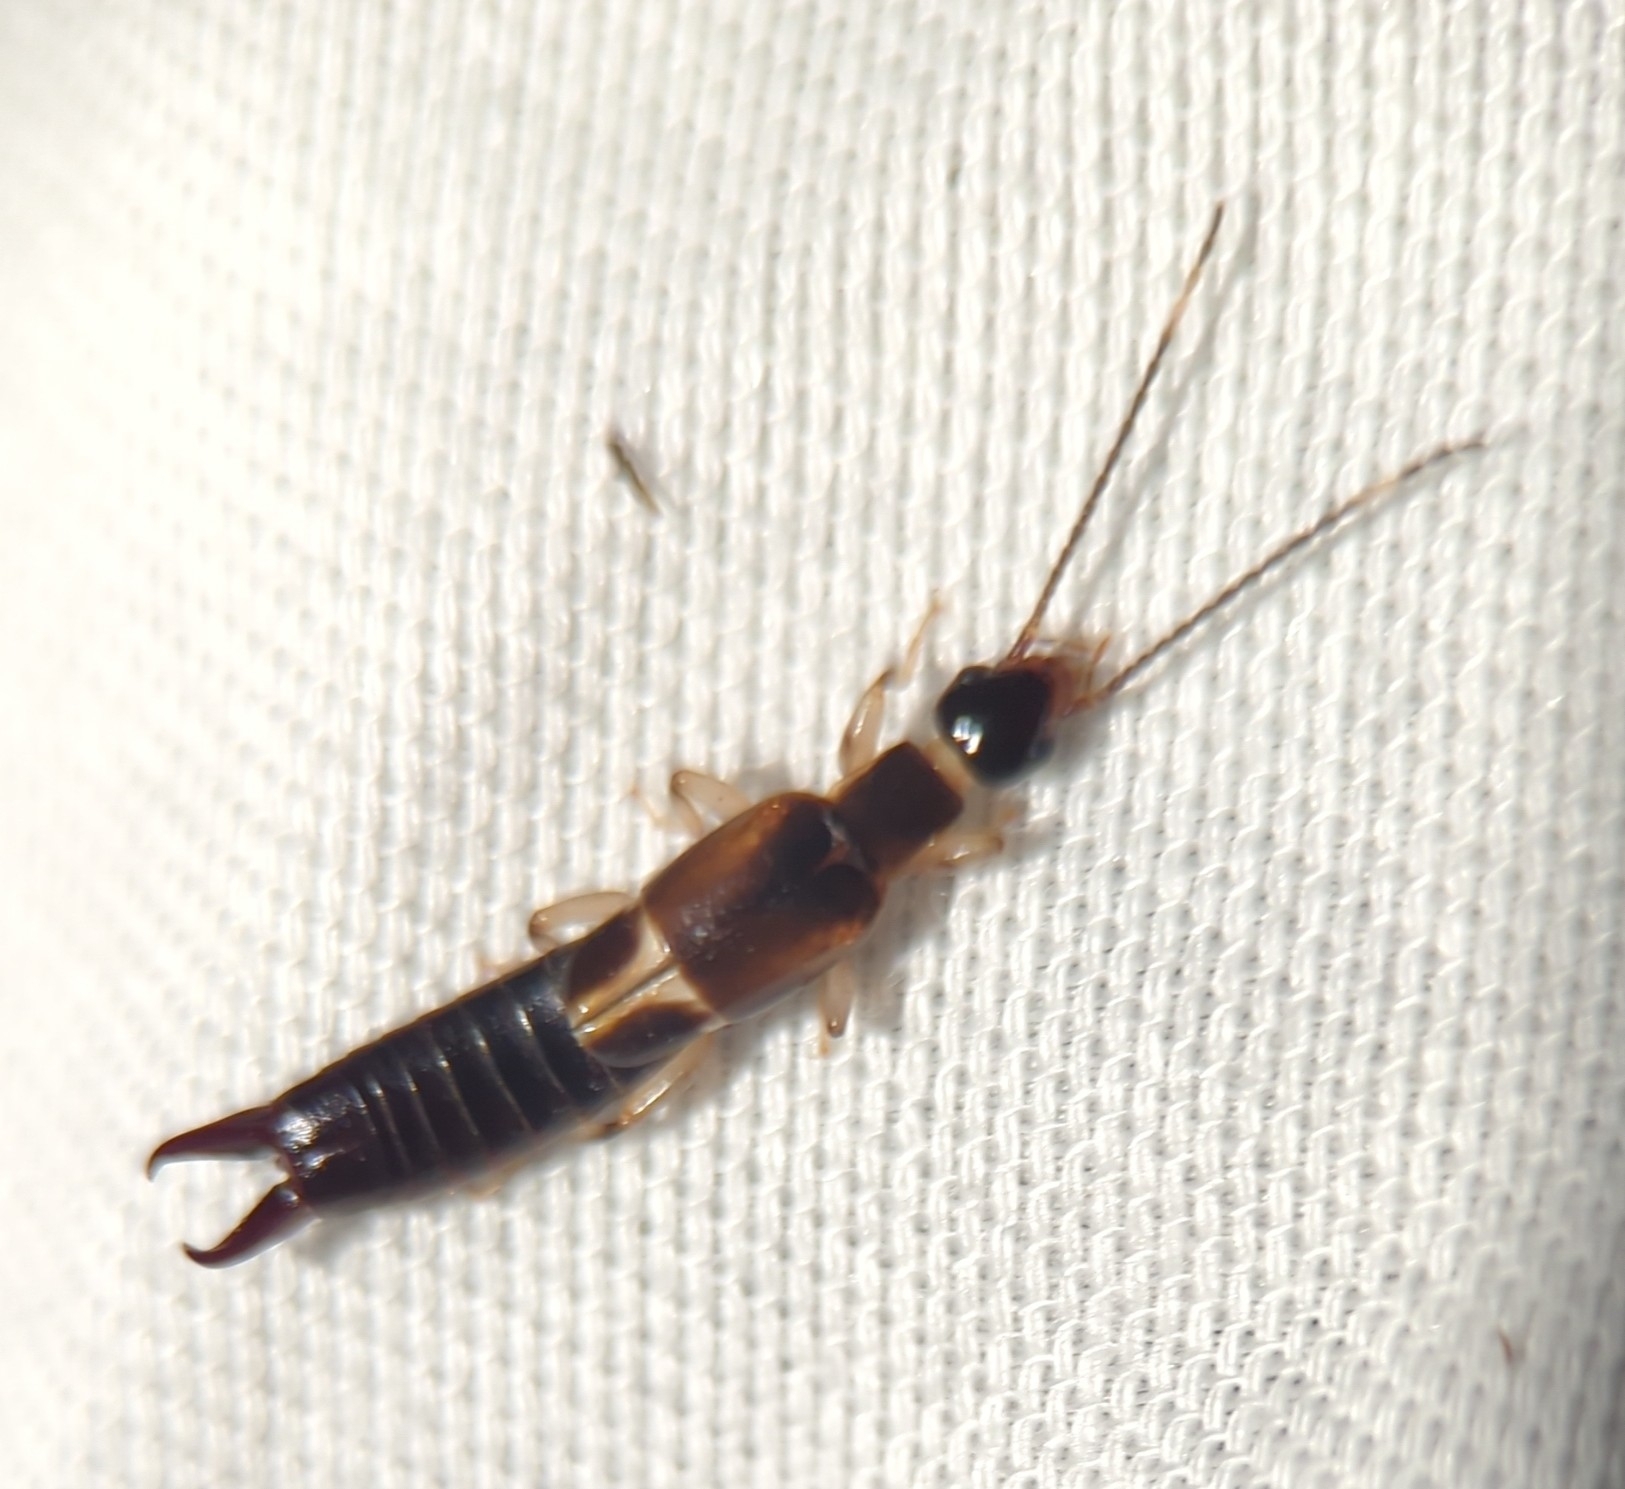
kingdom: Animalia
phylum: Arthropoda
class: Insecta
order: Dermaptera
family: Anisolabididae
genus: Euborellia
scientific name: Euborellia cincticollis
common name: African earwig
